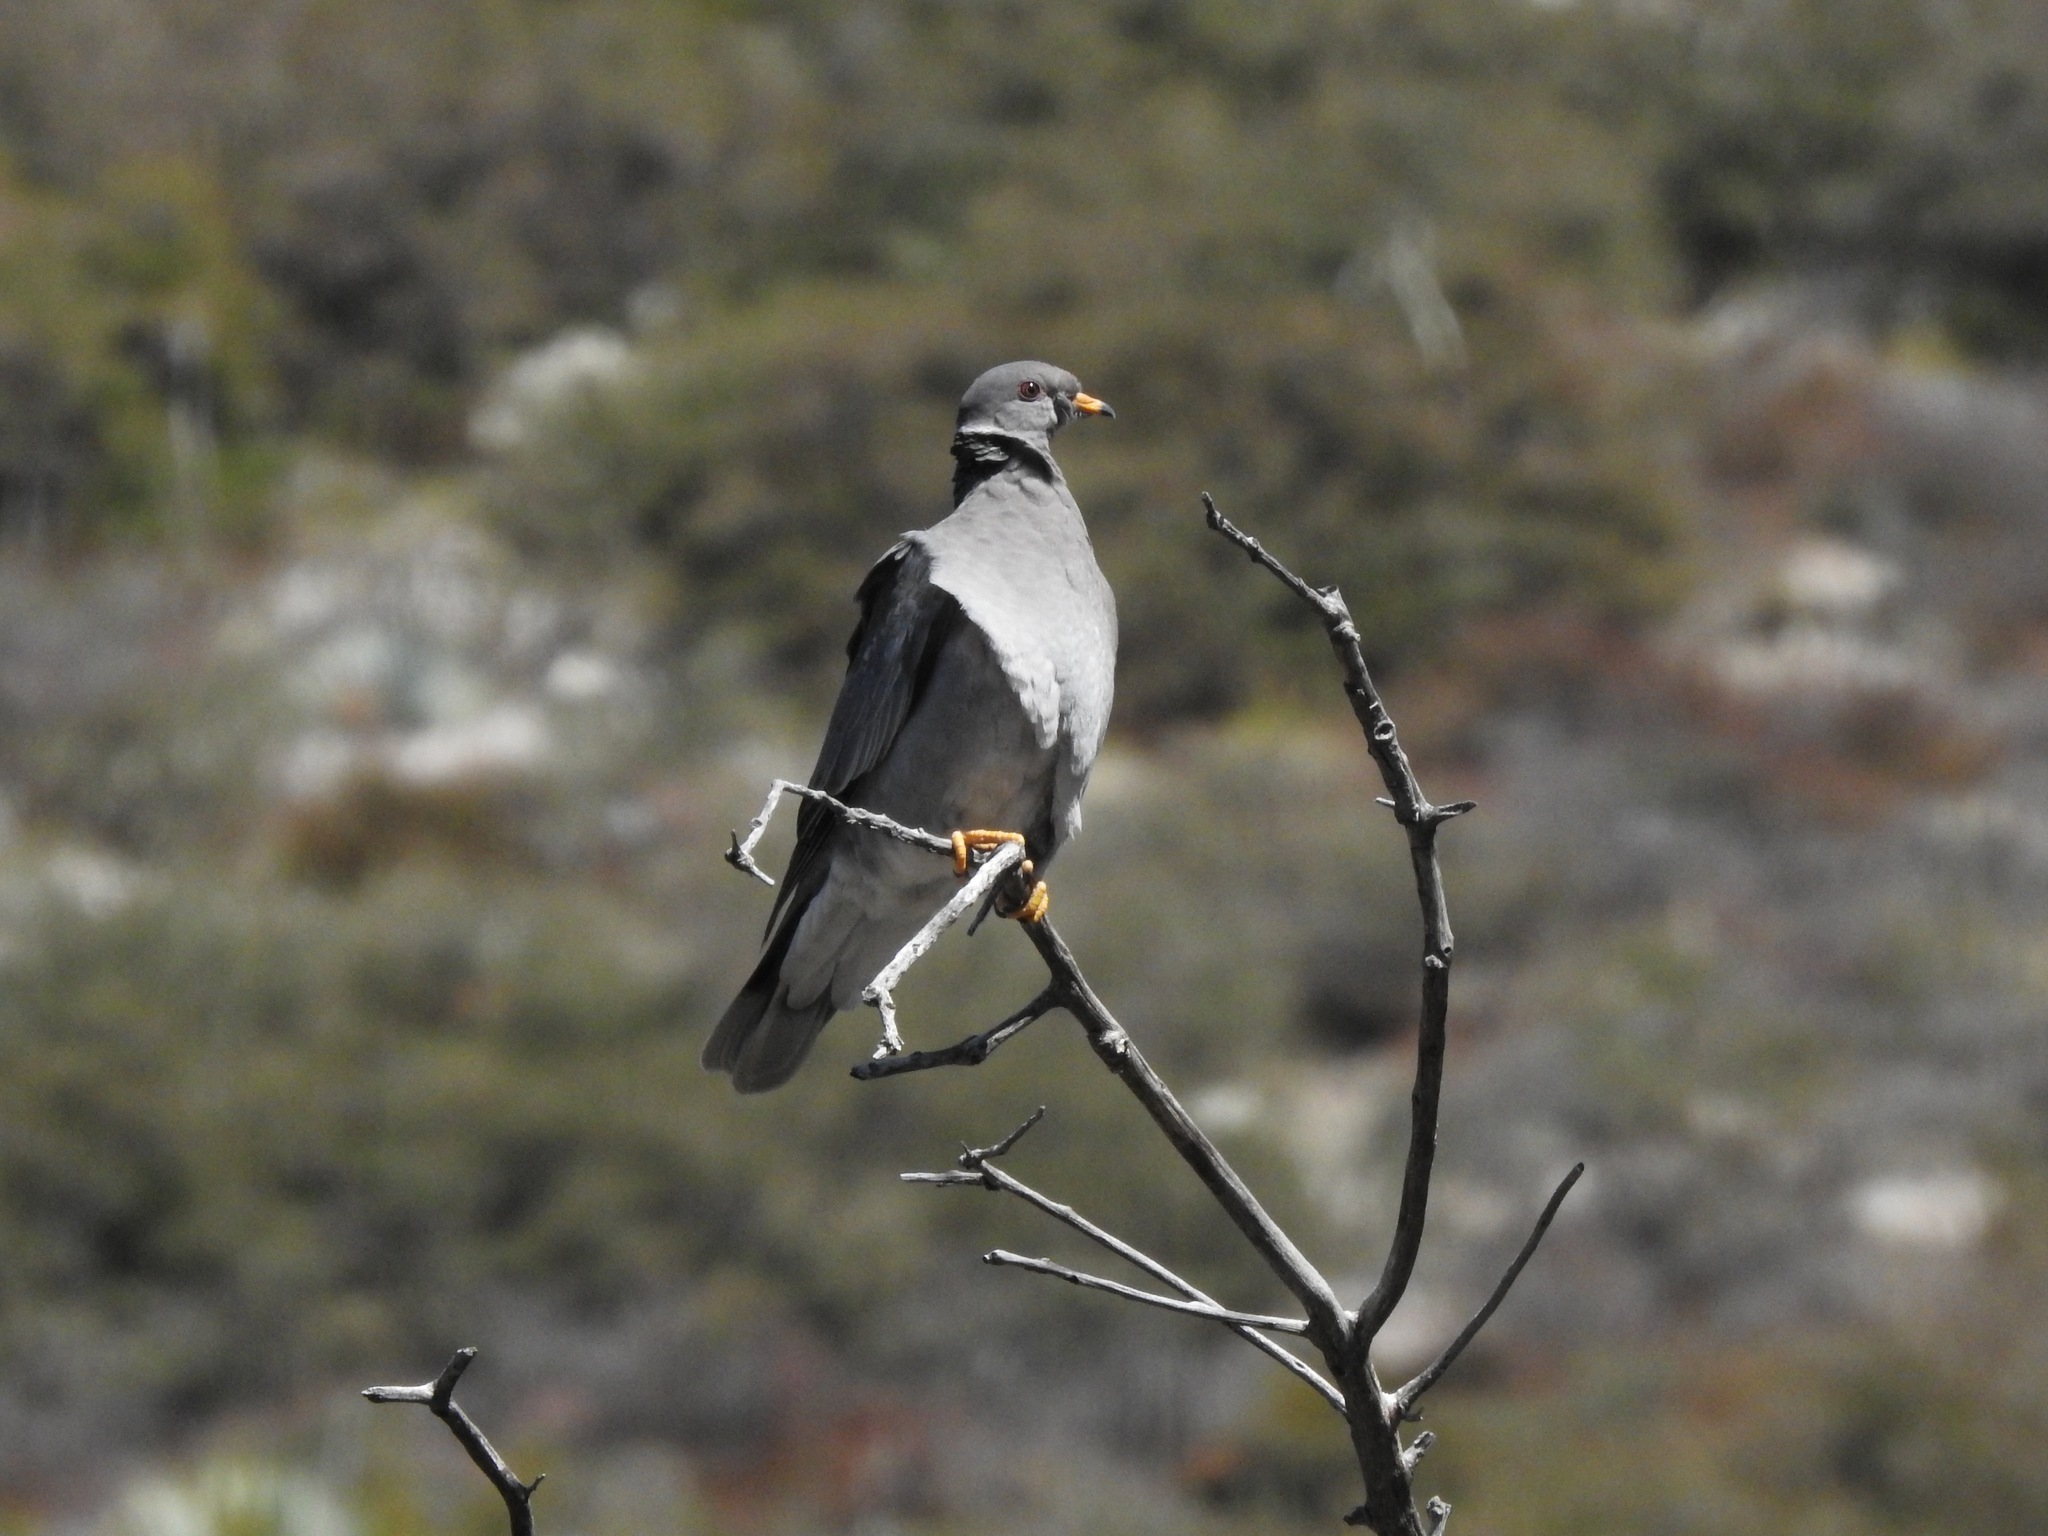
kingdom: Animalia
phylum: Chordata
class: Aves
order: Columbiformes
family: Columbidae
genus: Patagioenas
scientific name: Patagioenas fasciata
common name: Band-tailed pigeon
